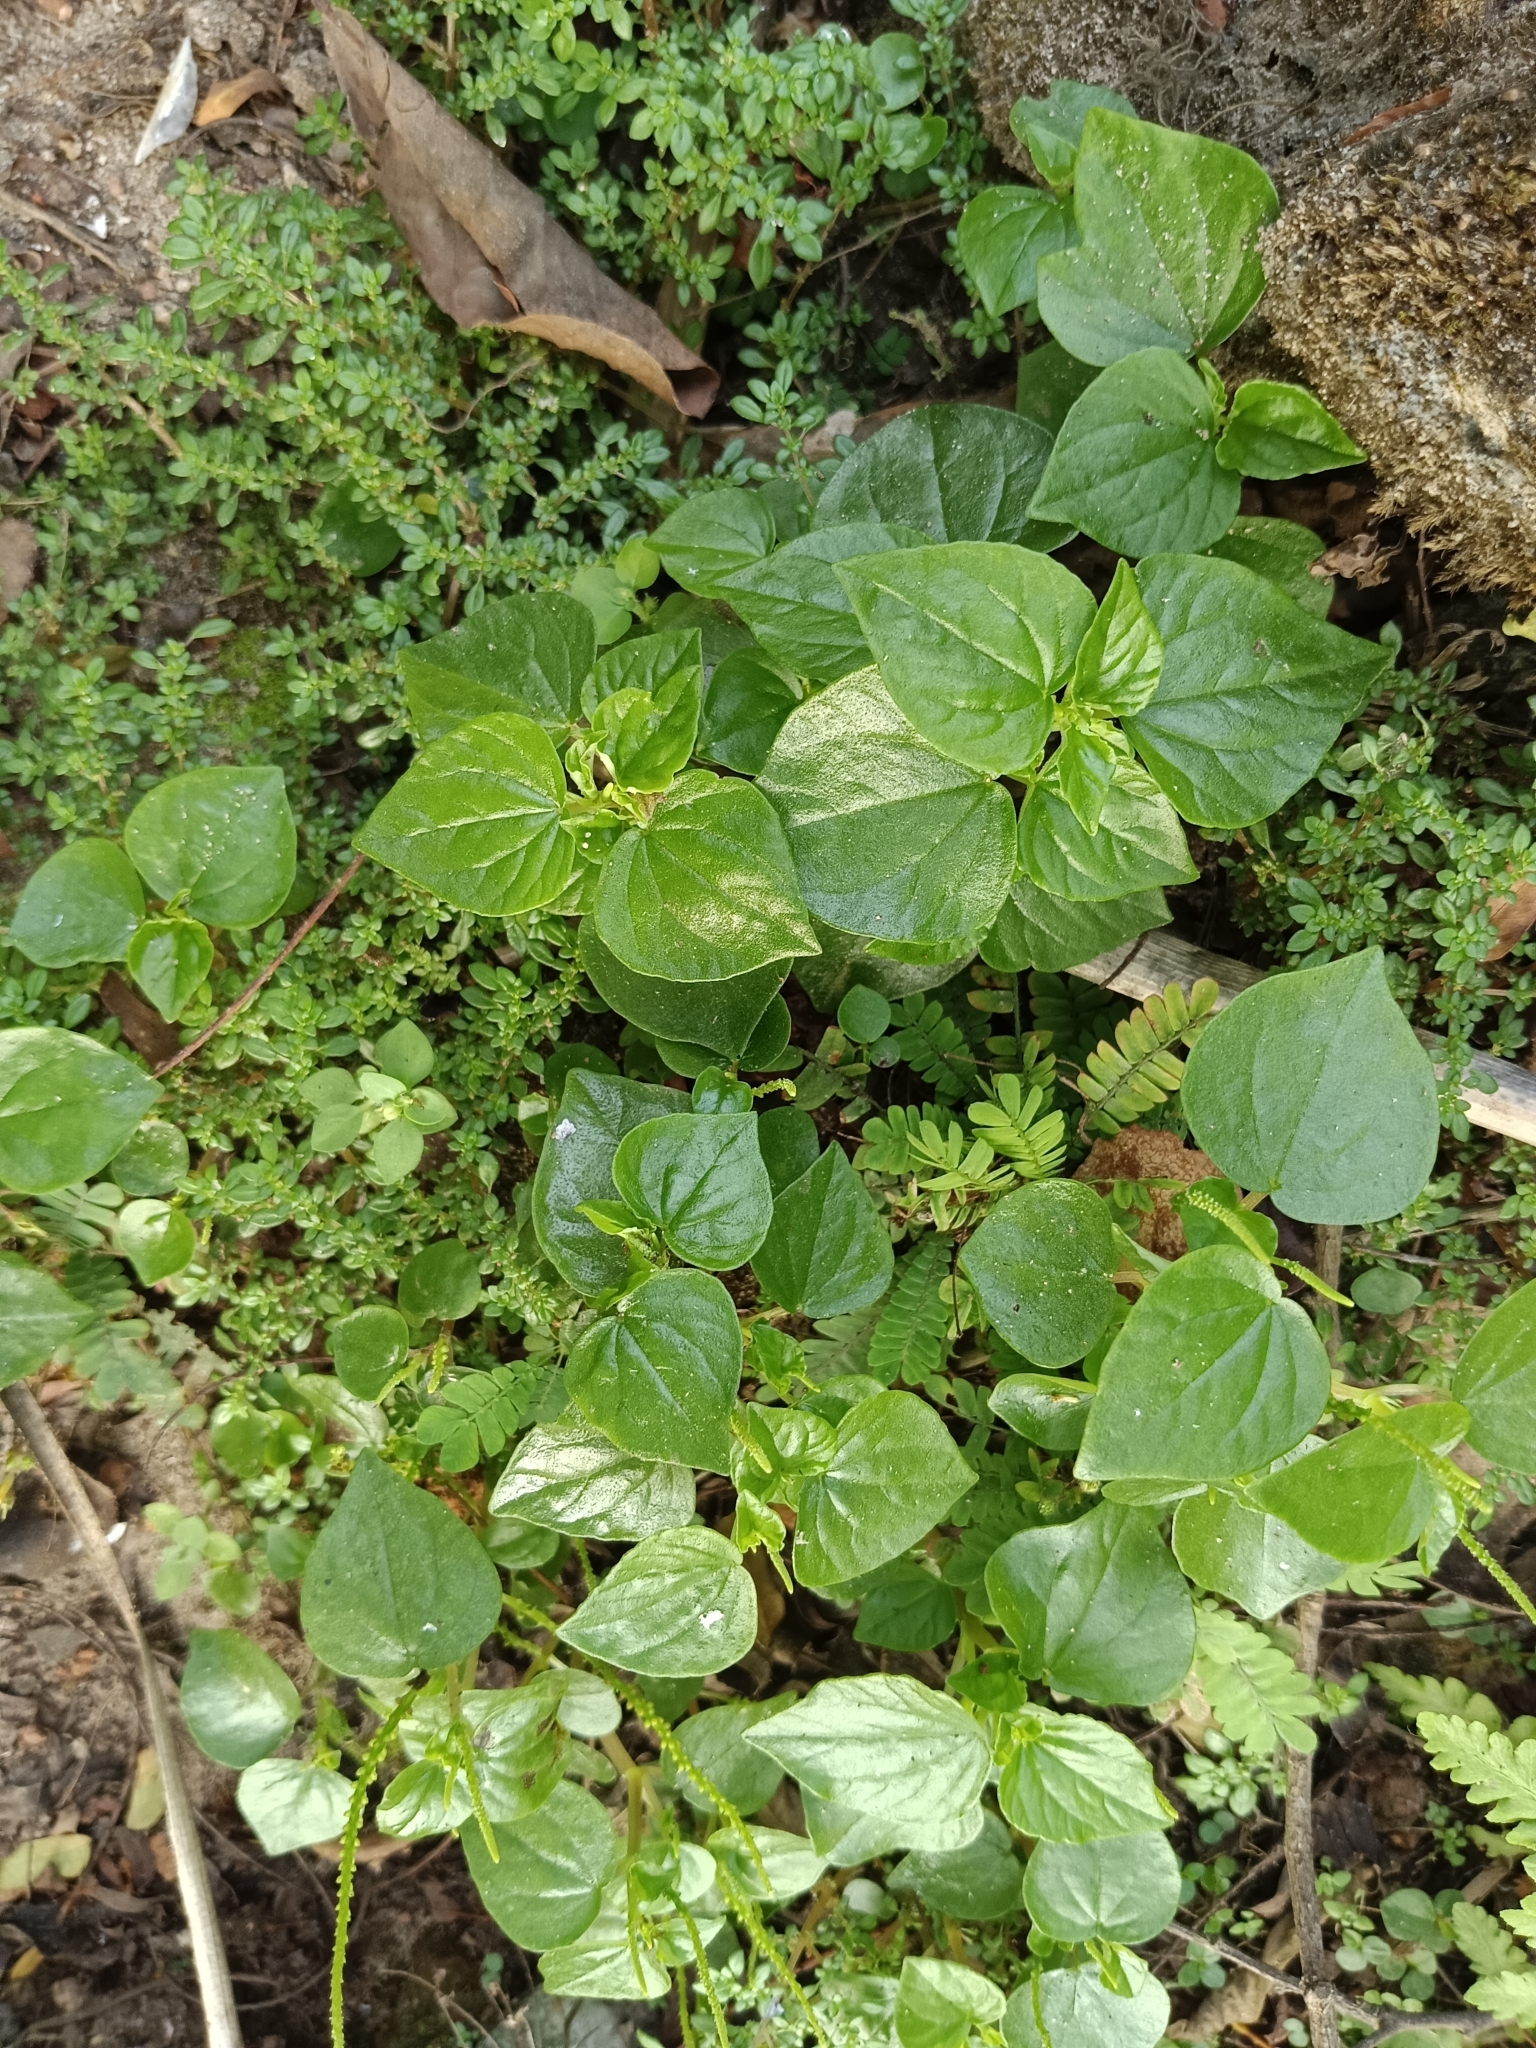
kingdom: Plantae
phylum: Tracheophyta
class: Magnoliopsida
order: Piperales
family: Piperaceae
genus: Peperomia
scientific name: Peperomia pellucida
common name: Man to man
